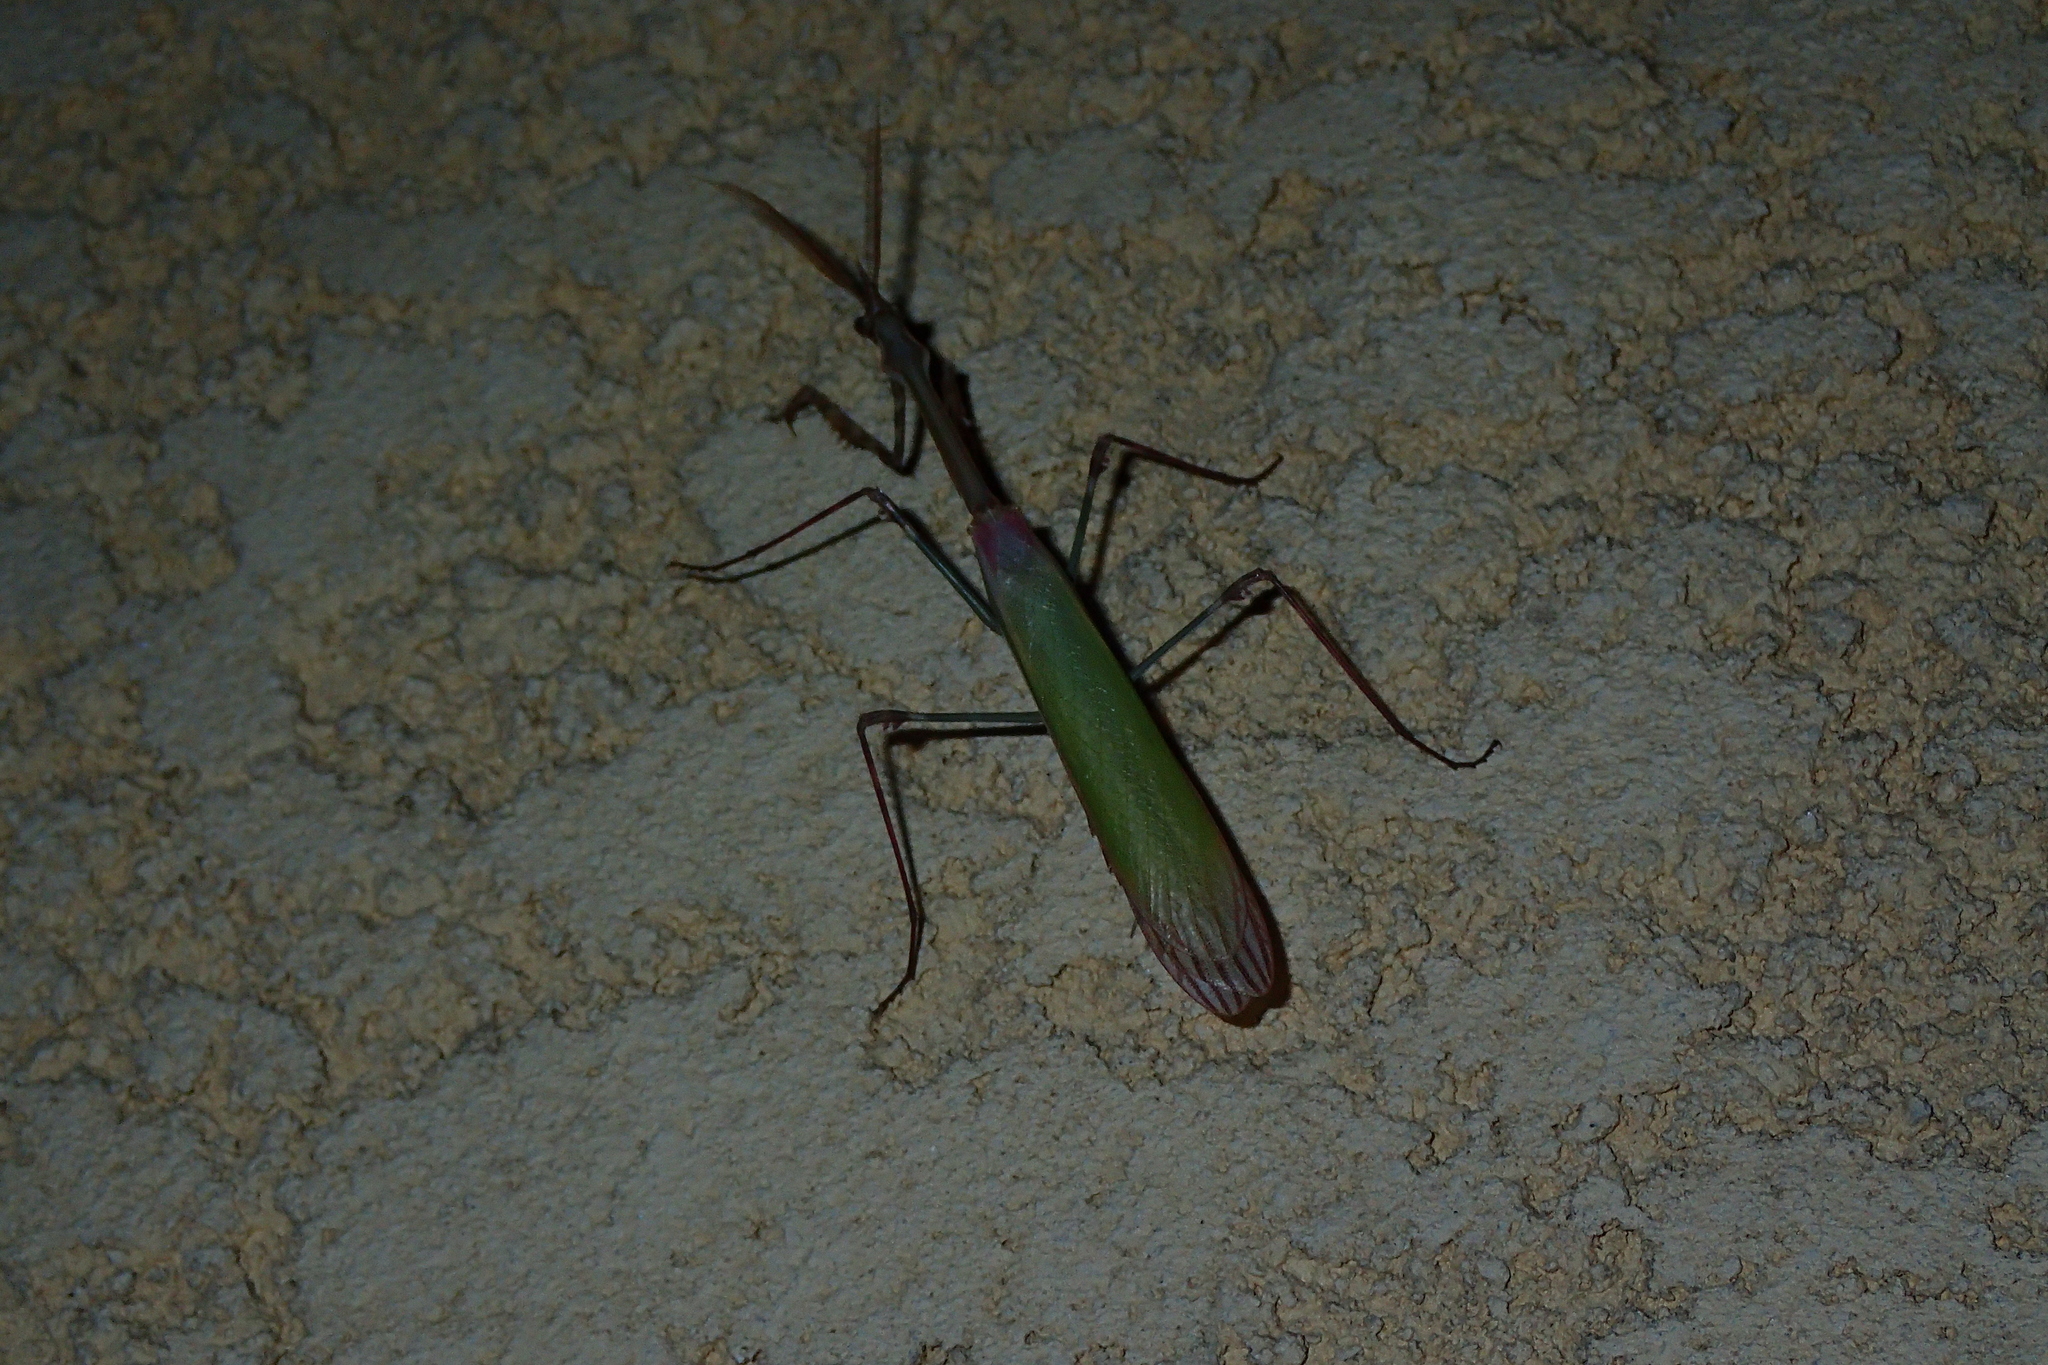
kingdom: Animalia
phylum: Arthropoda
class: Insecta
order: Mantodea
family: Empusidae
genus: Empusa
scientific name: Empusa pennata
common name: Conehead mantis
